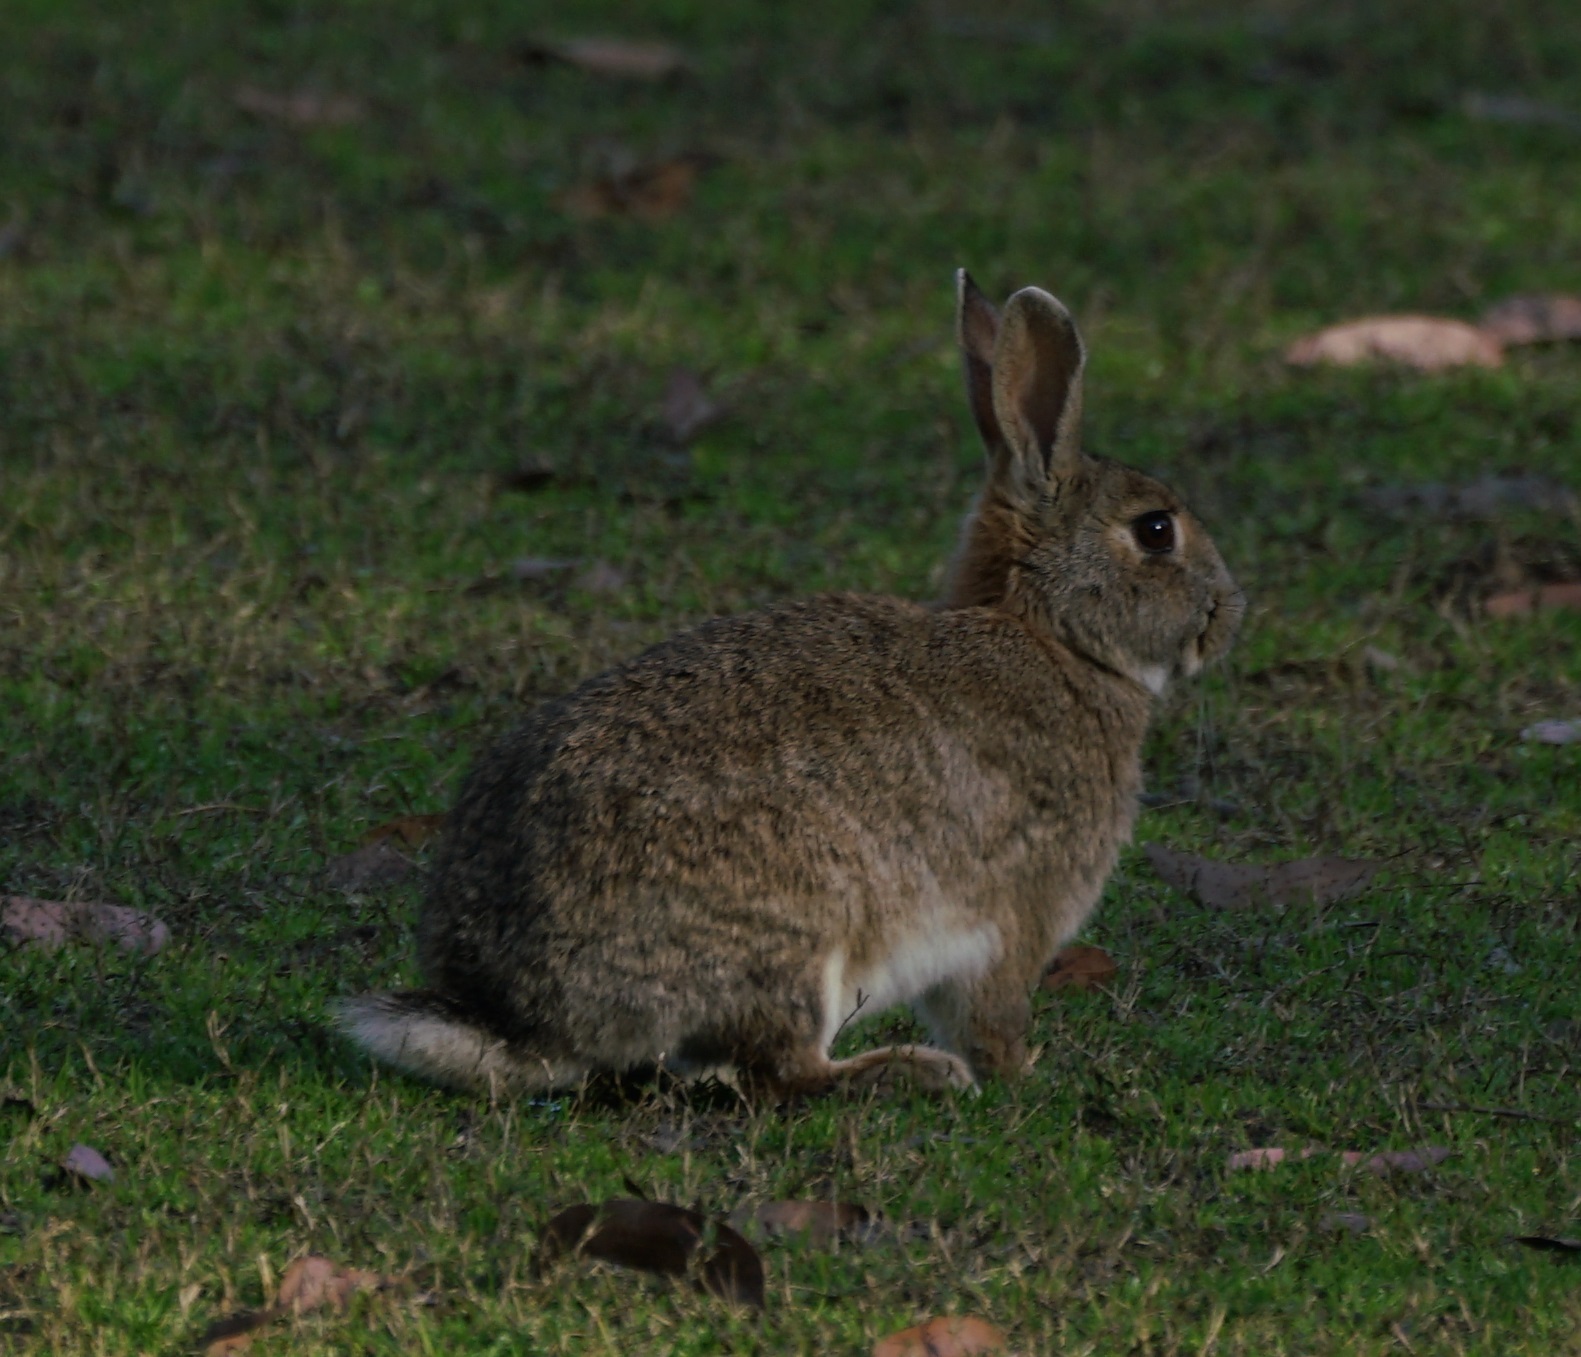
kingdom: Animalia
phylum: Chordata
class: Mammalia
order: Lagomorpha
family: Leporidae
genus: Oryctolagus
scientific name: Oryctolagus cuniculus
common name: European rabbit
